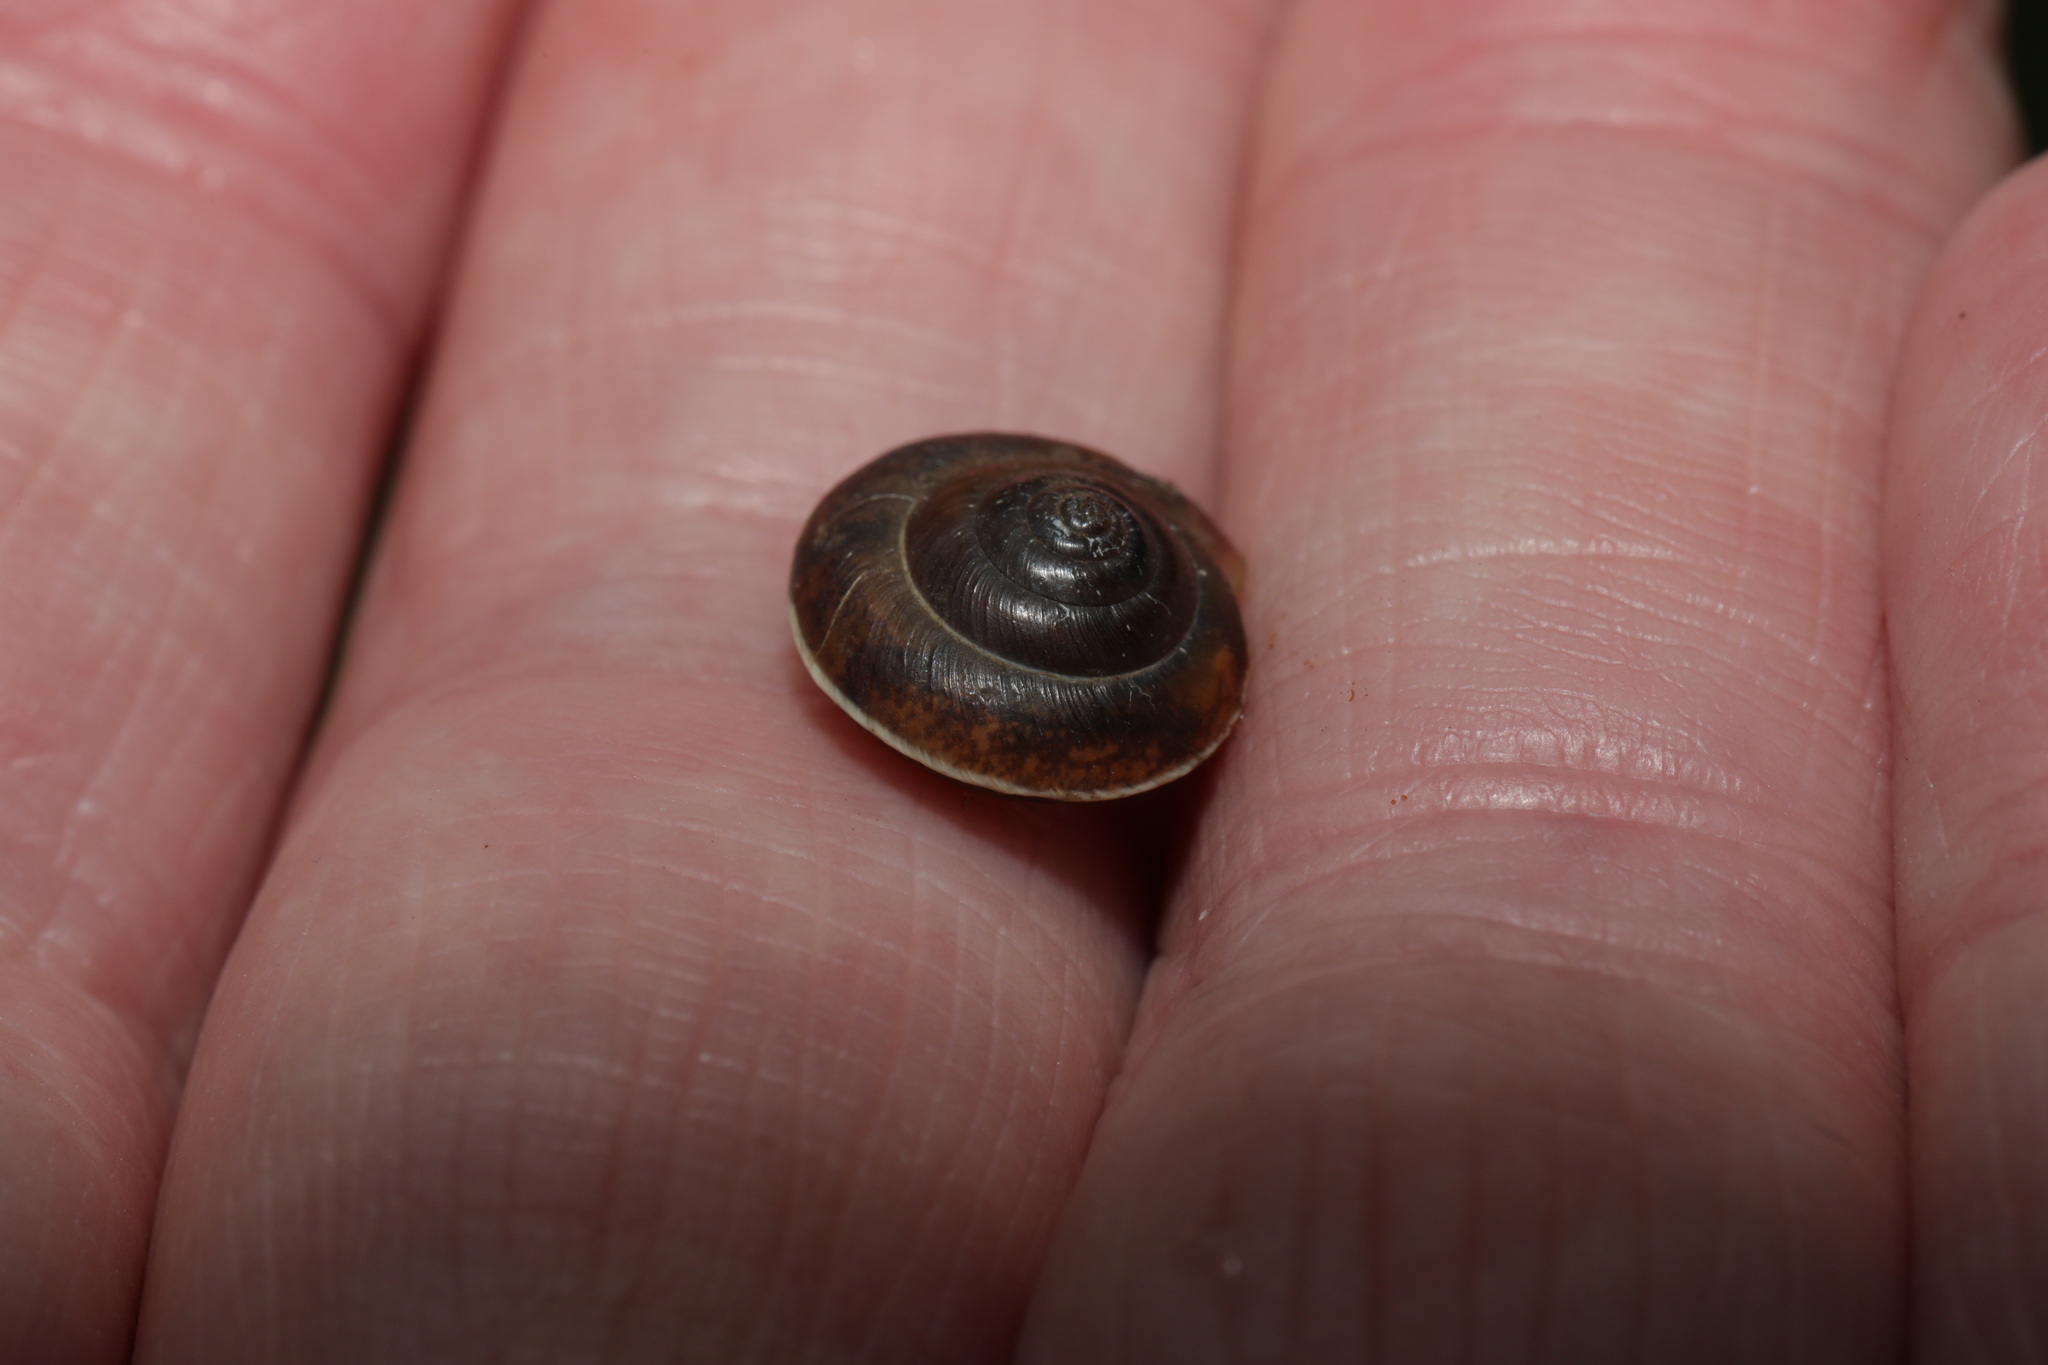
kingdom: Animalia
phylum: Mollusca
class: Gastropoda
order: Stylommatophora
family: Hygromiidae
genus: Hygromia
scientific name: Hygromia cinctella
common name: Girdled snail
